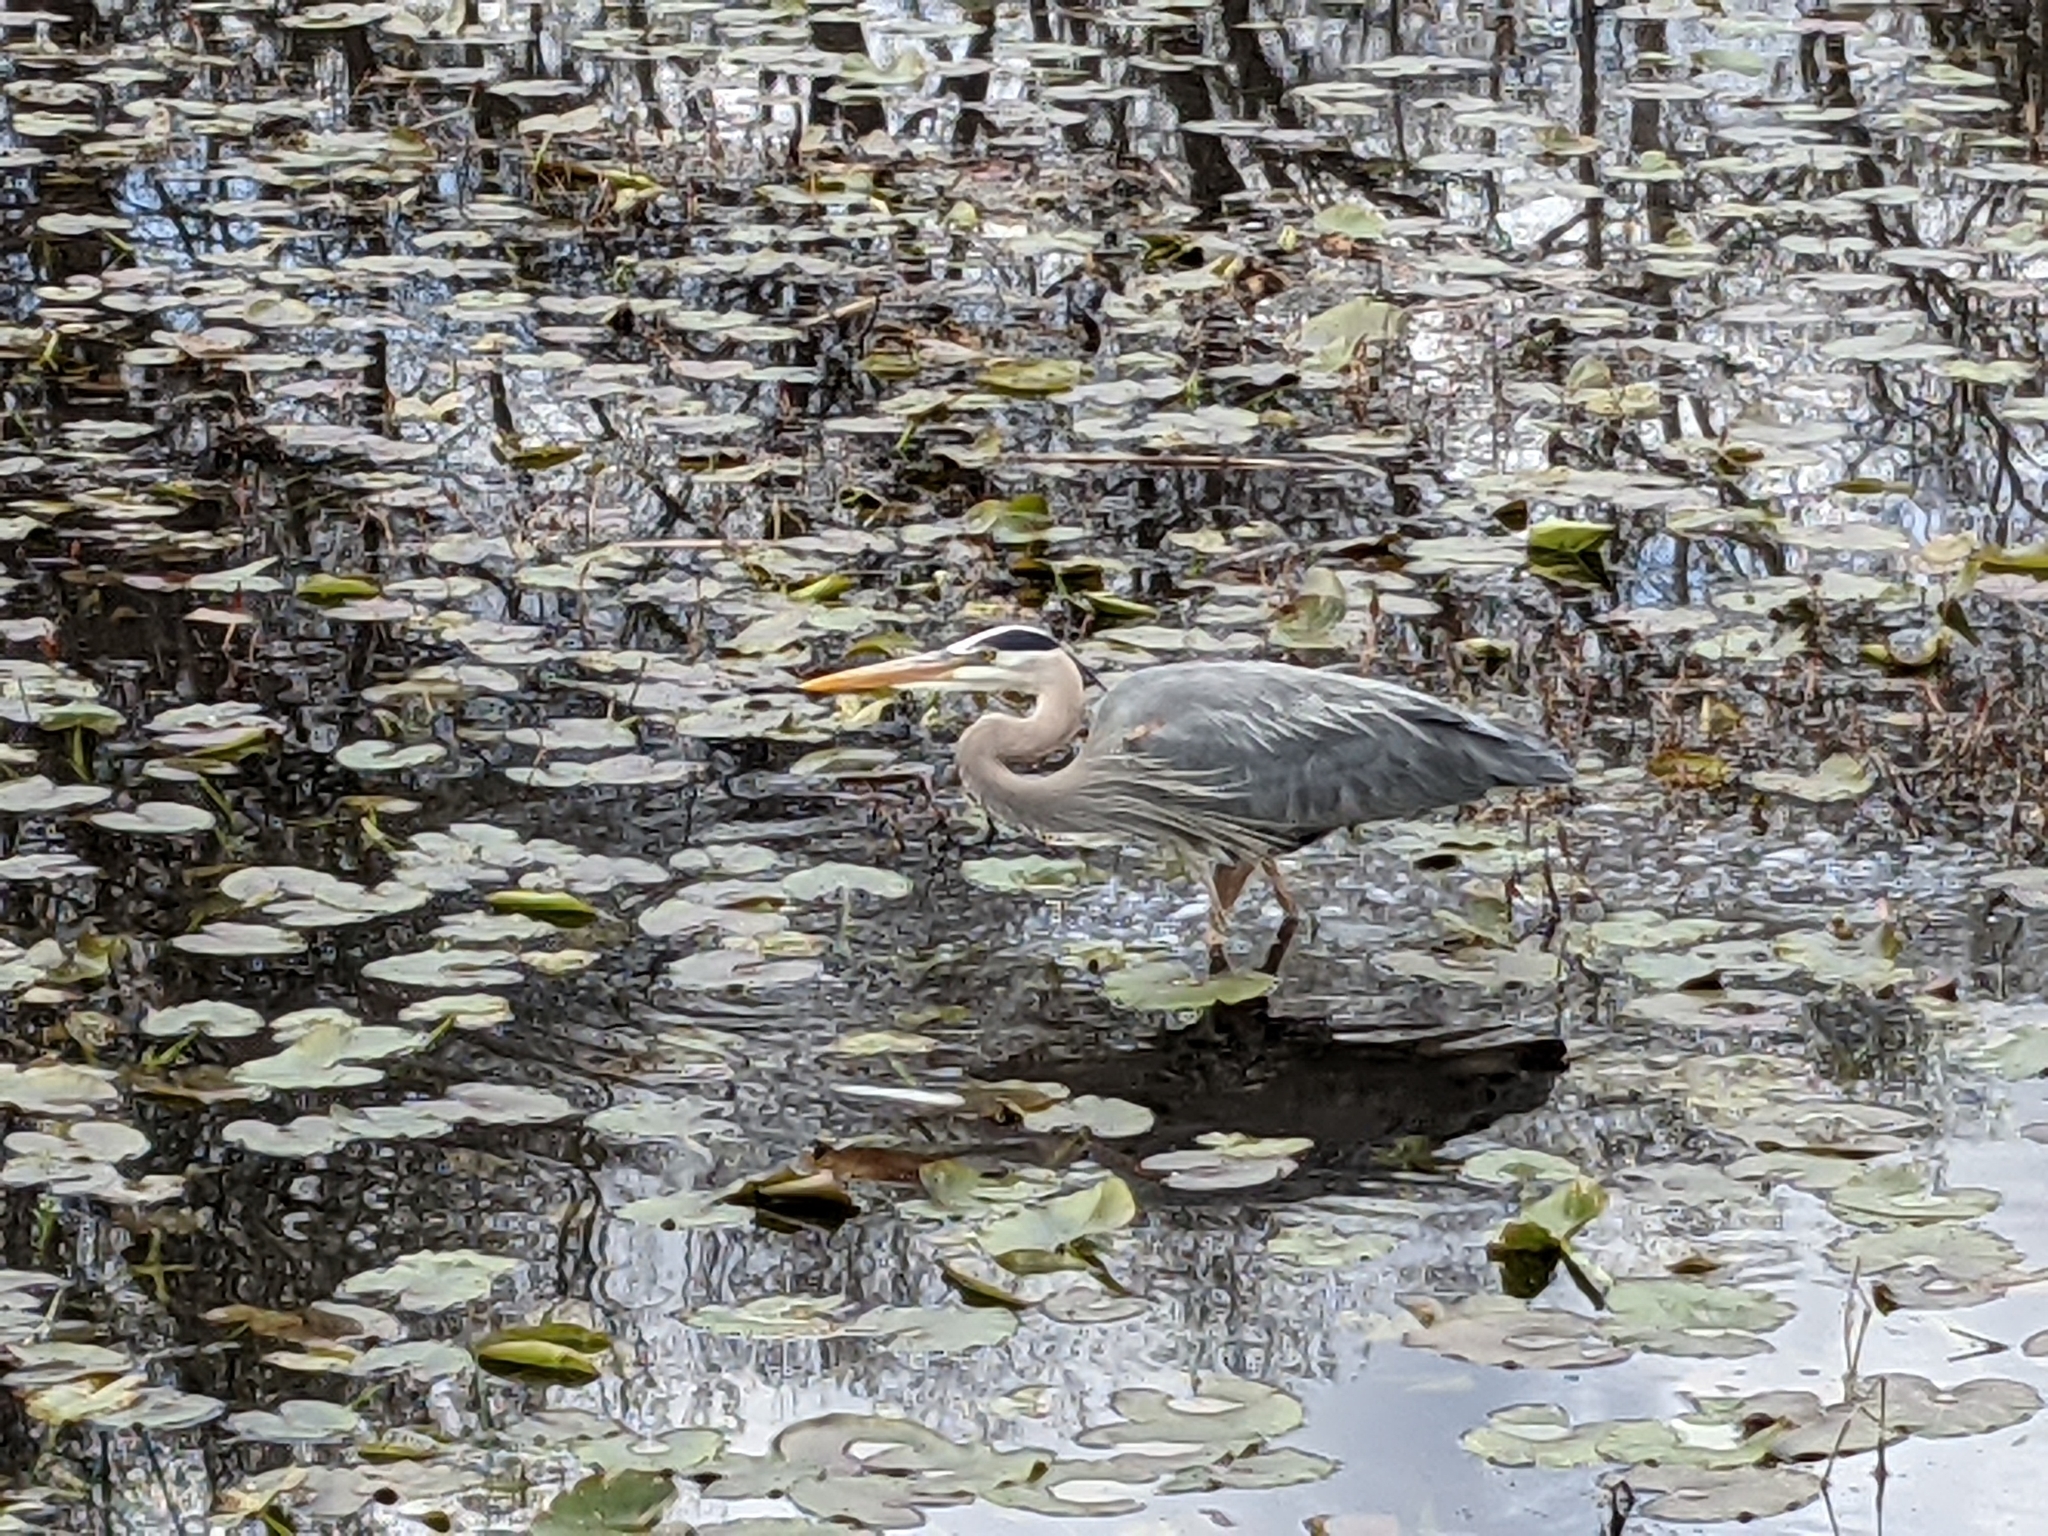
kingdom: Animalia
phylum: Chordata
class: Aves
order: Pelecaniformes
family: Ardeidae
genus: Ardea
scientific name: Ardea herodias
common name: Great blue heron
